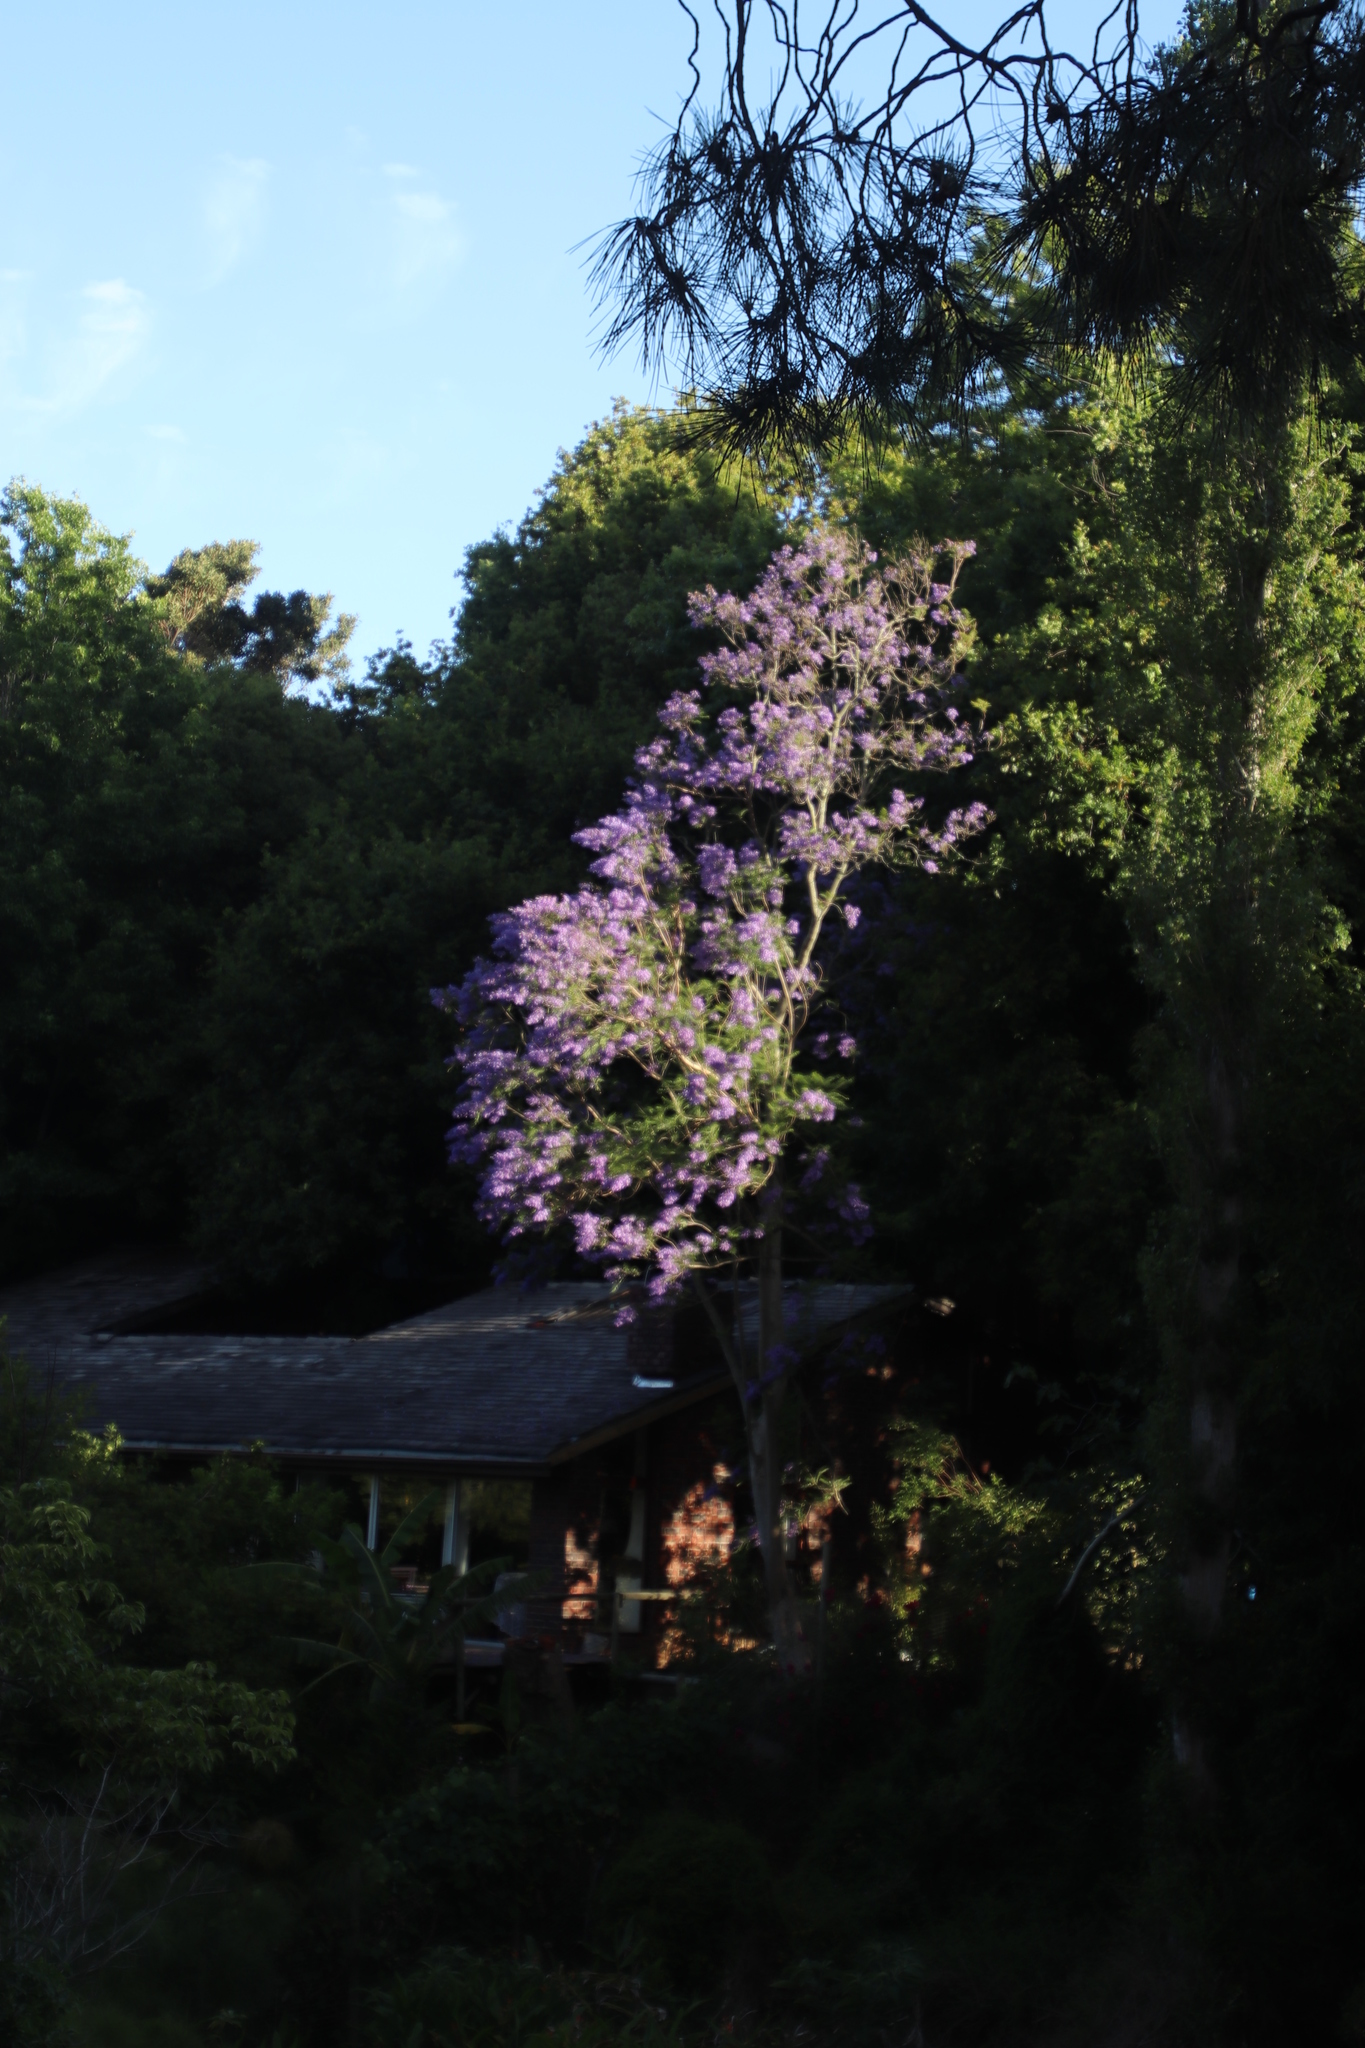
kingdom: Plantae
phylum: Tracheophyta
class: Magnoliopsida
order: Lamiales
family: Bignoniaceae
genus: Jacaranda
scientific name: Jacaranda mimosifolia
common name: Black poui
